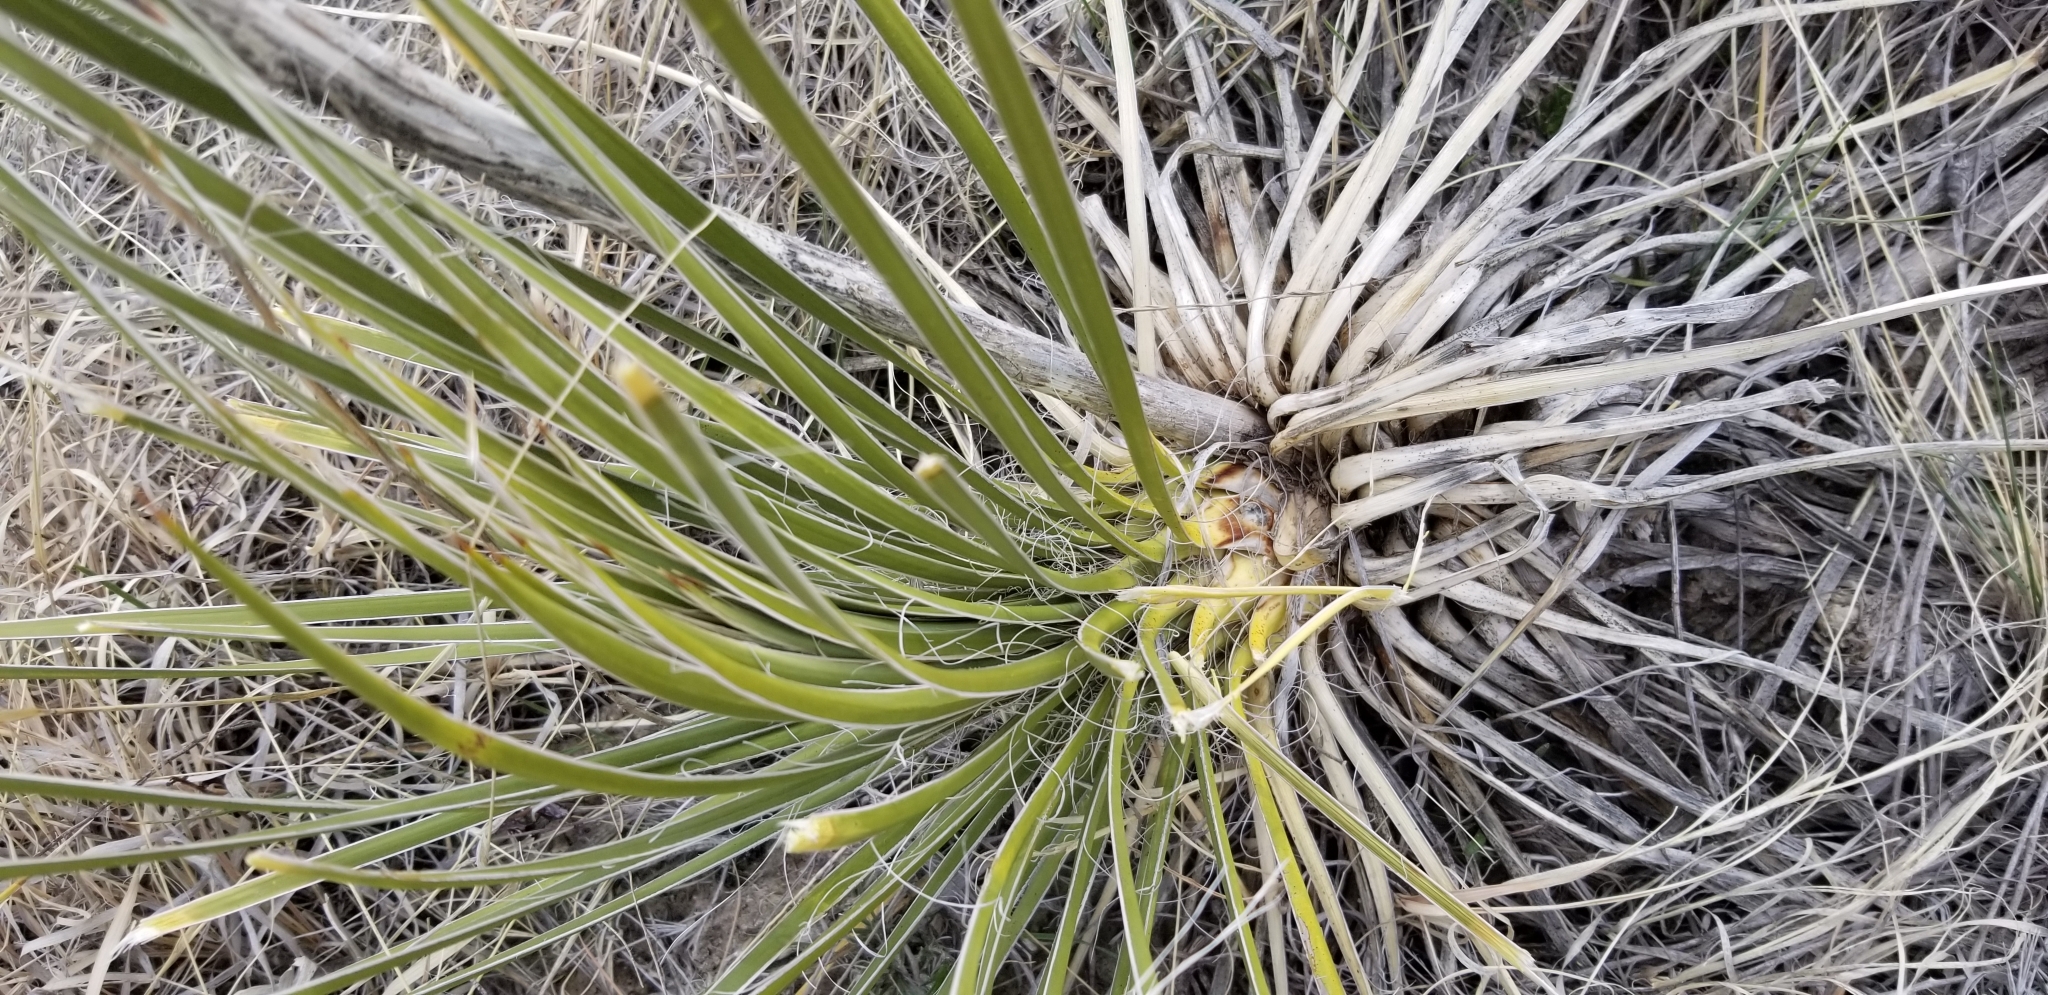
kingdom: Plantae
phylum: Tracheophyta
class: Liliopsida
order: Asparagales
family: Asparagaceae
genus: Yucca
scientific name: Yucca glauca
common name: Great plains yucca
